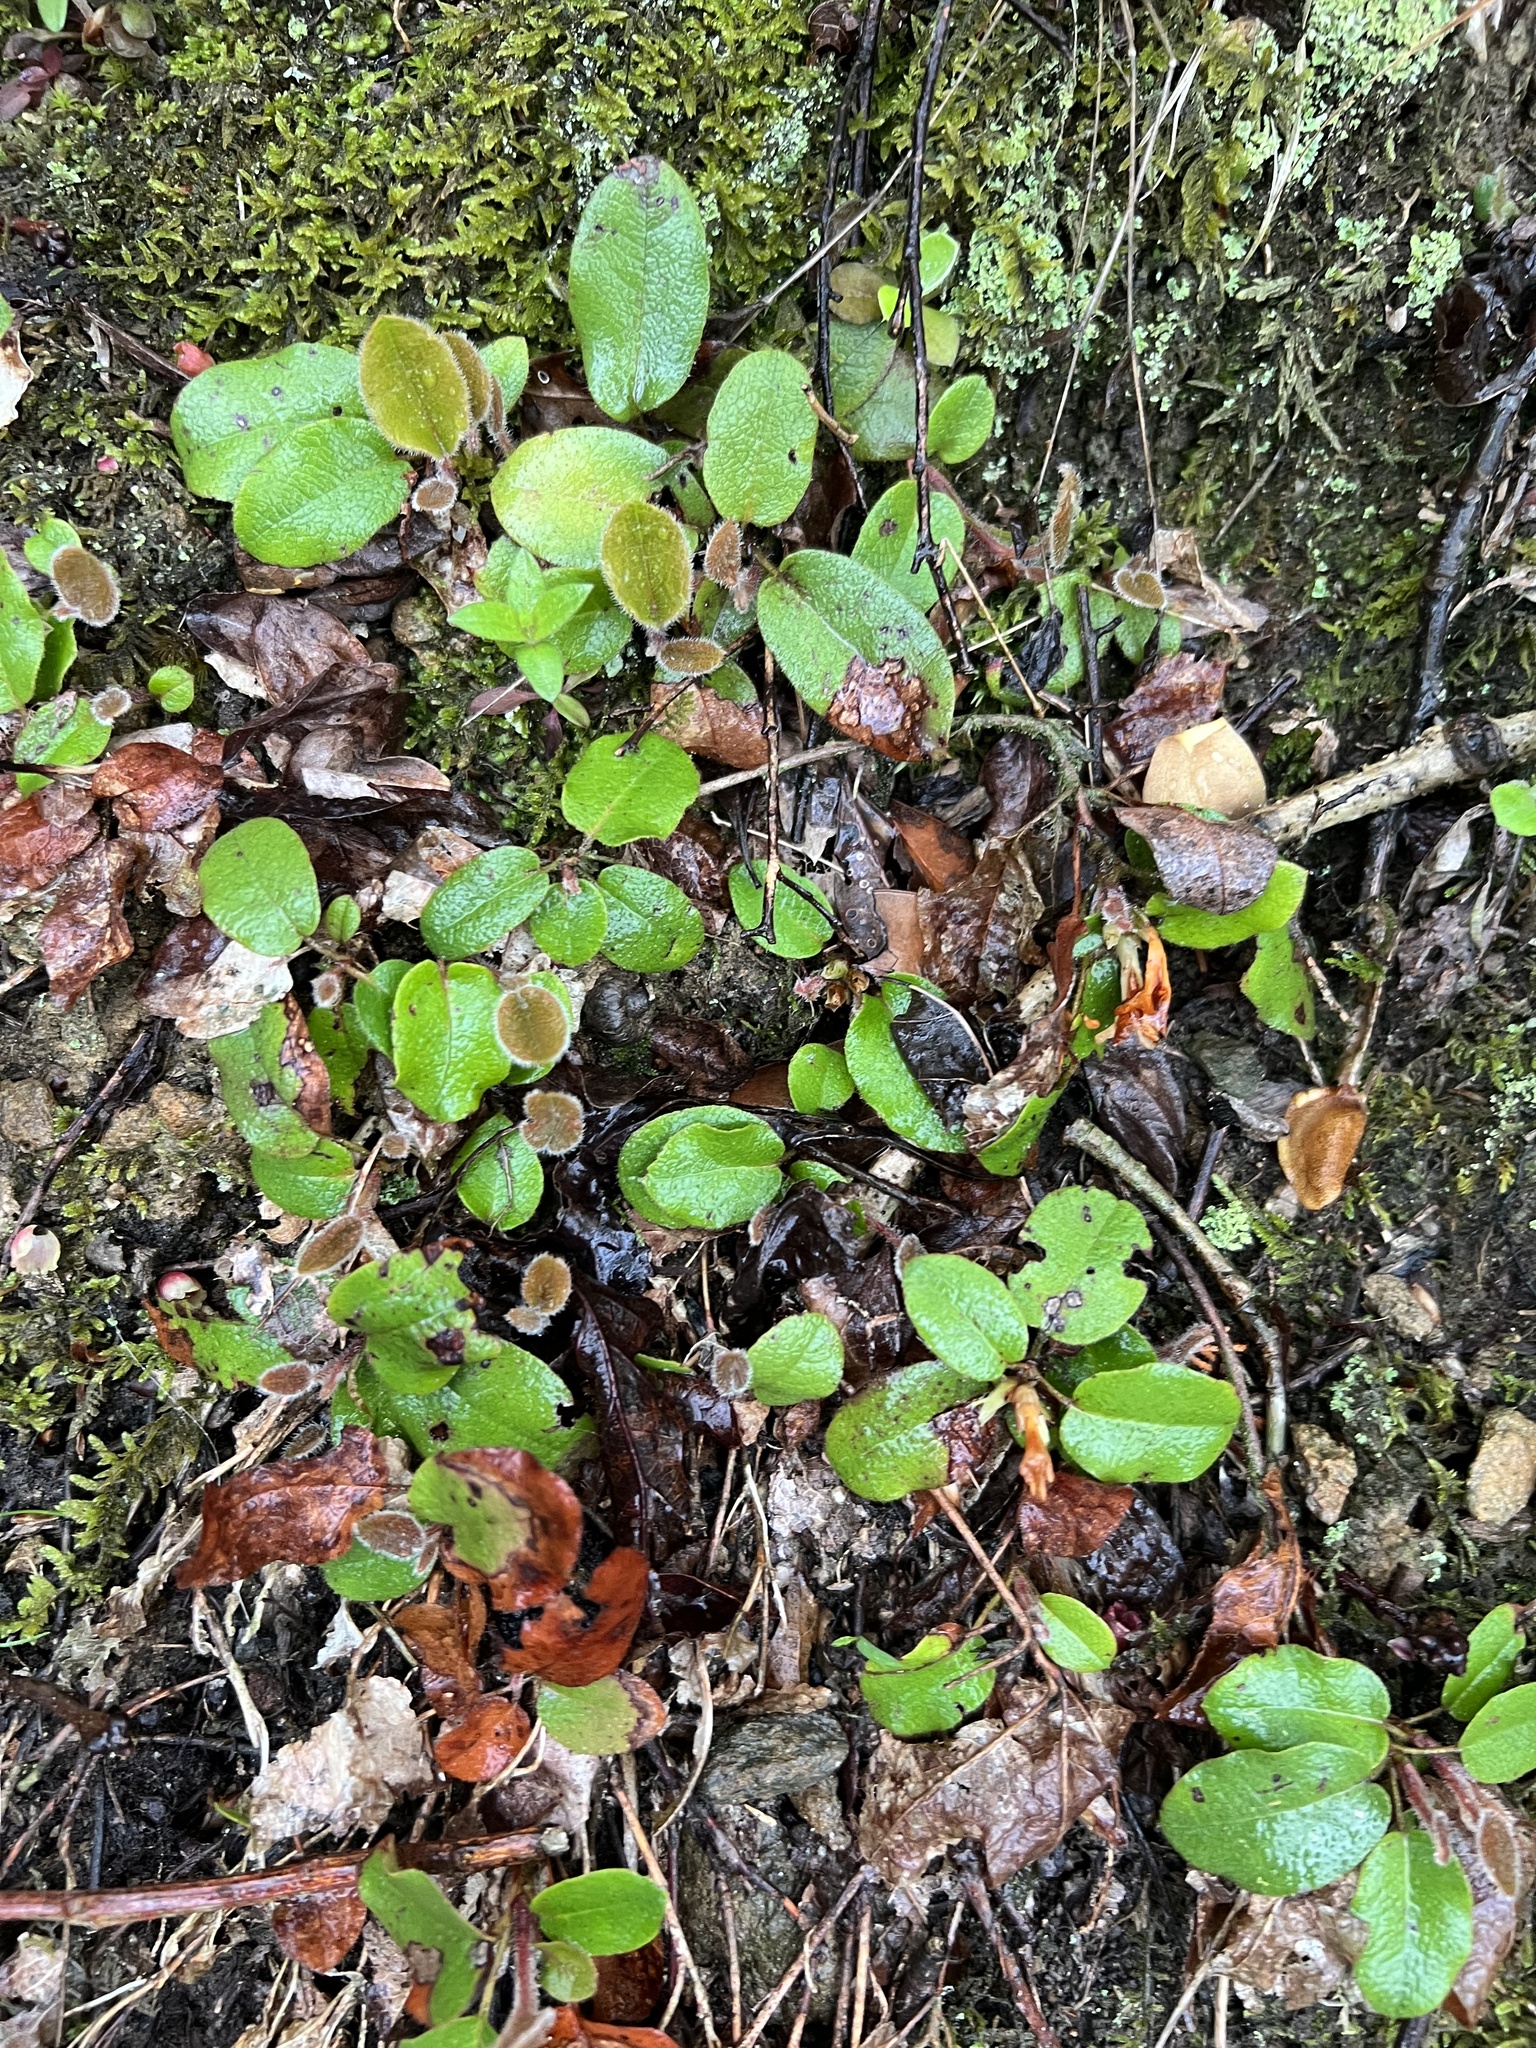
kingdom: Plantae
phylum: Tracheophyta
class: Magnoliopsida
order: Ericales
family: Ericaceae
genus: Epigaea
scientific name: Epigaea repens
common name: Gravelroot
